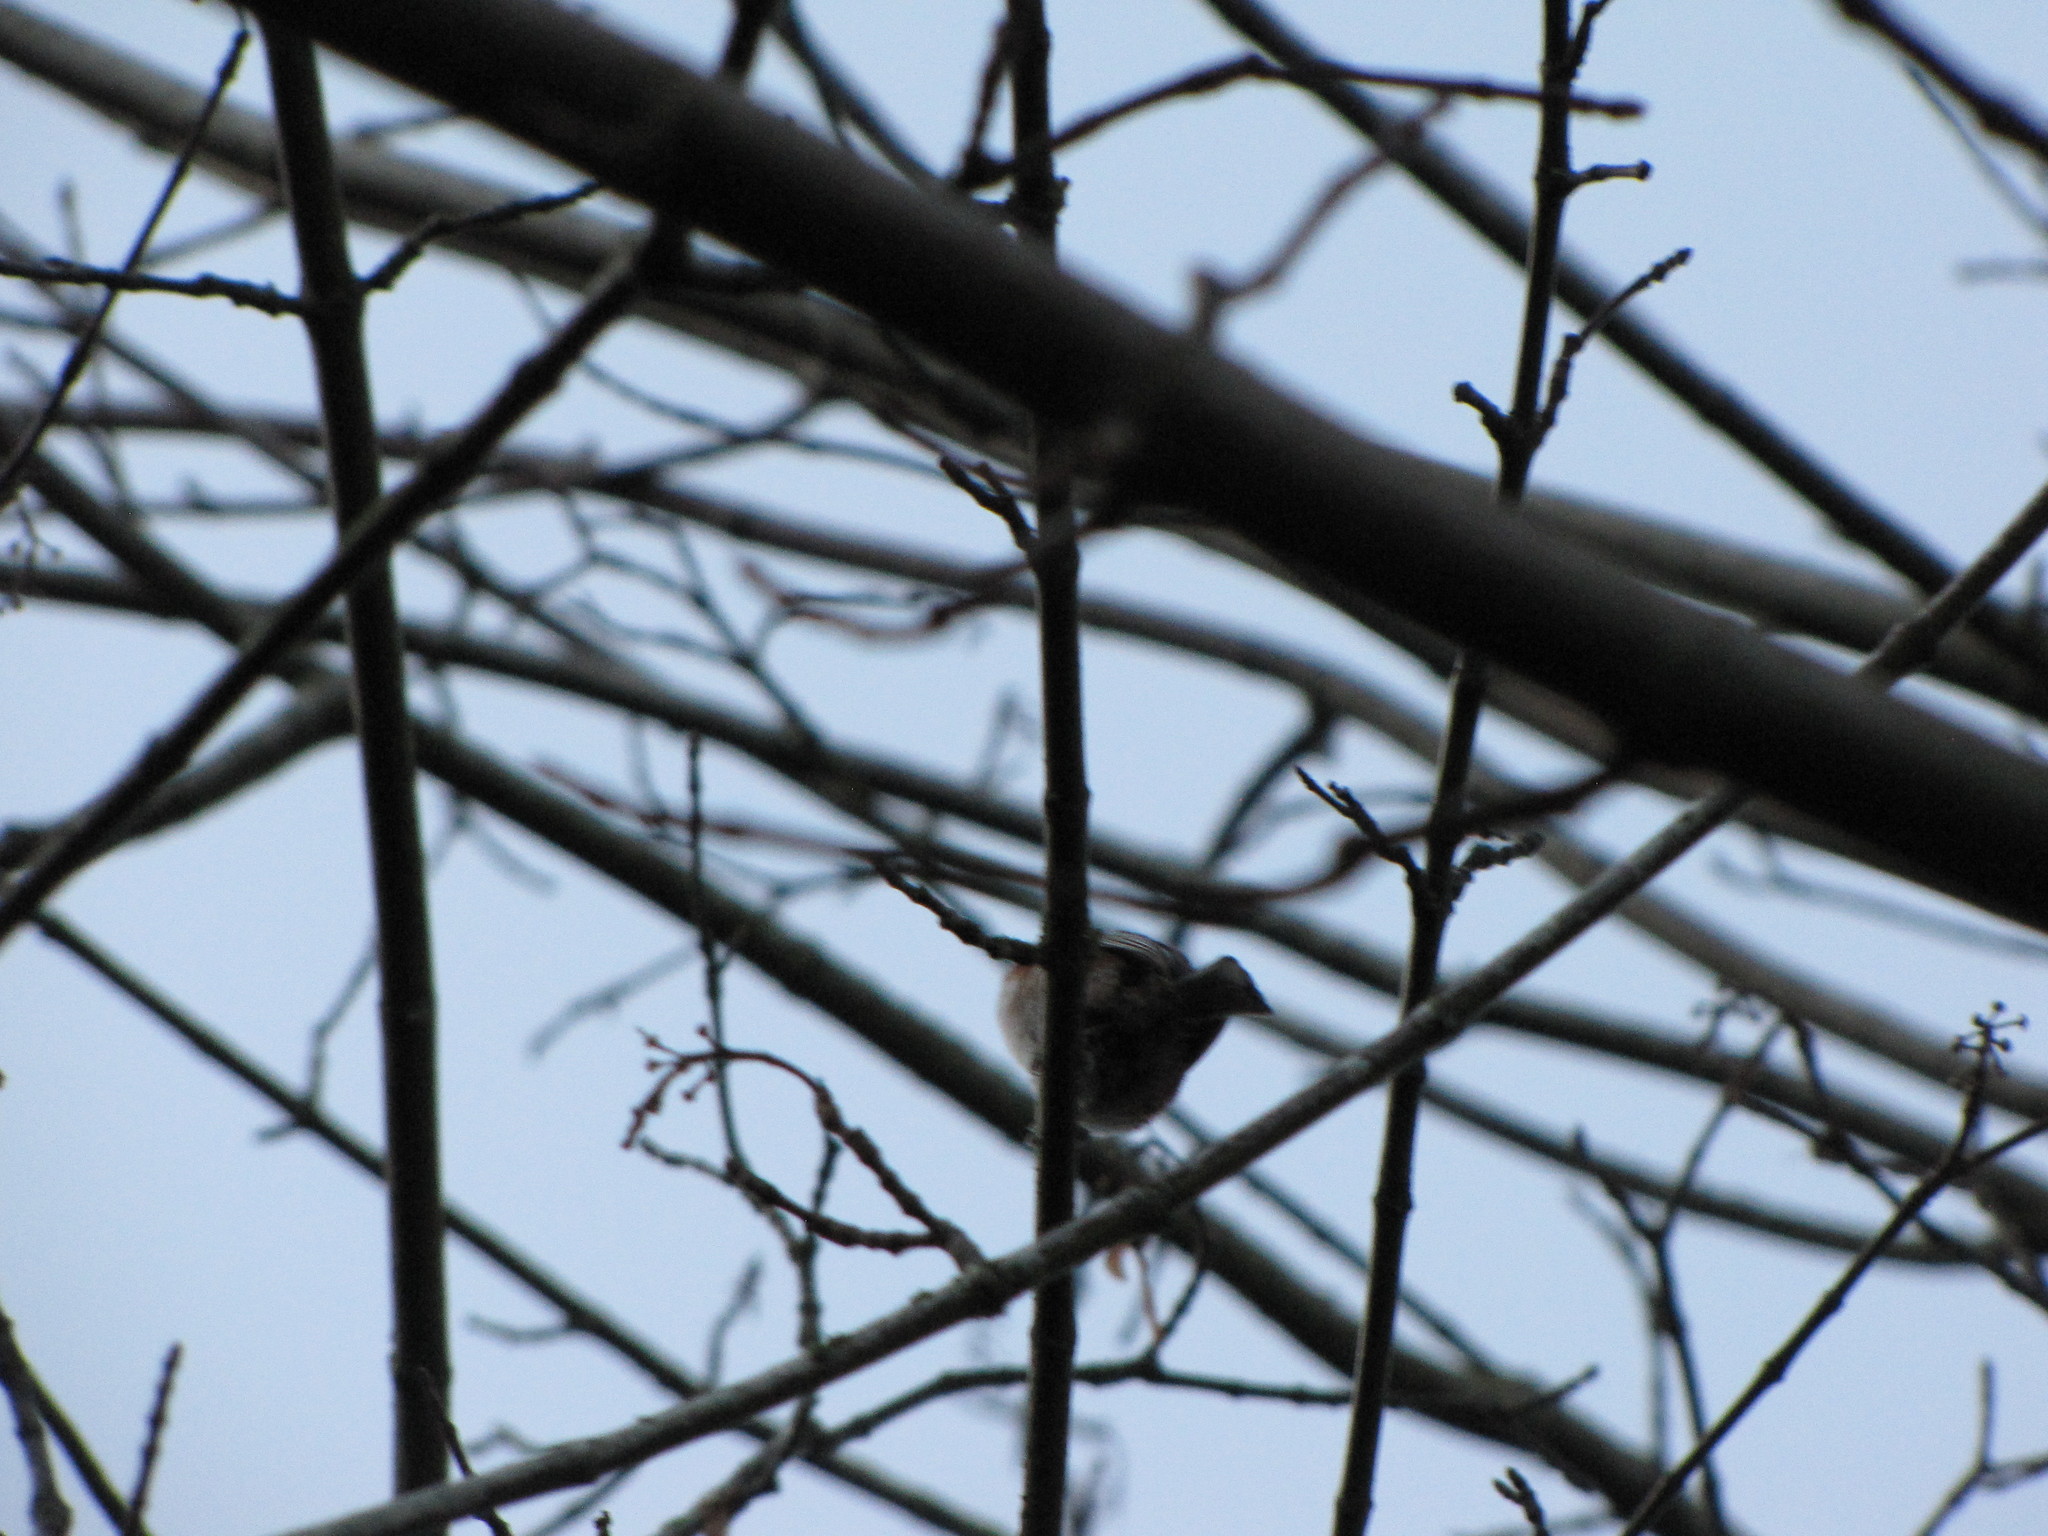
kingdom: Animalia
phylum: Chordata
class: Aves
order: Passeriformes
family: Paridae
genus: Poecile
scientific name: Poecile rufescens
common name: Chestnut-backed chickadee
